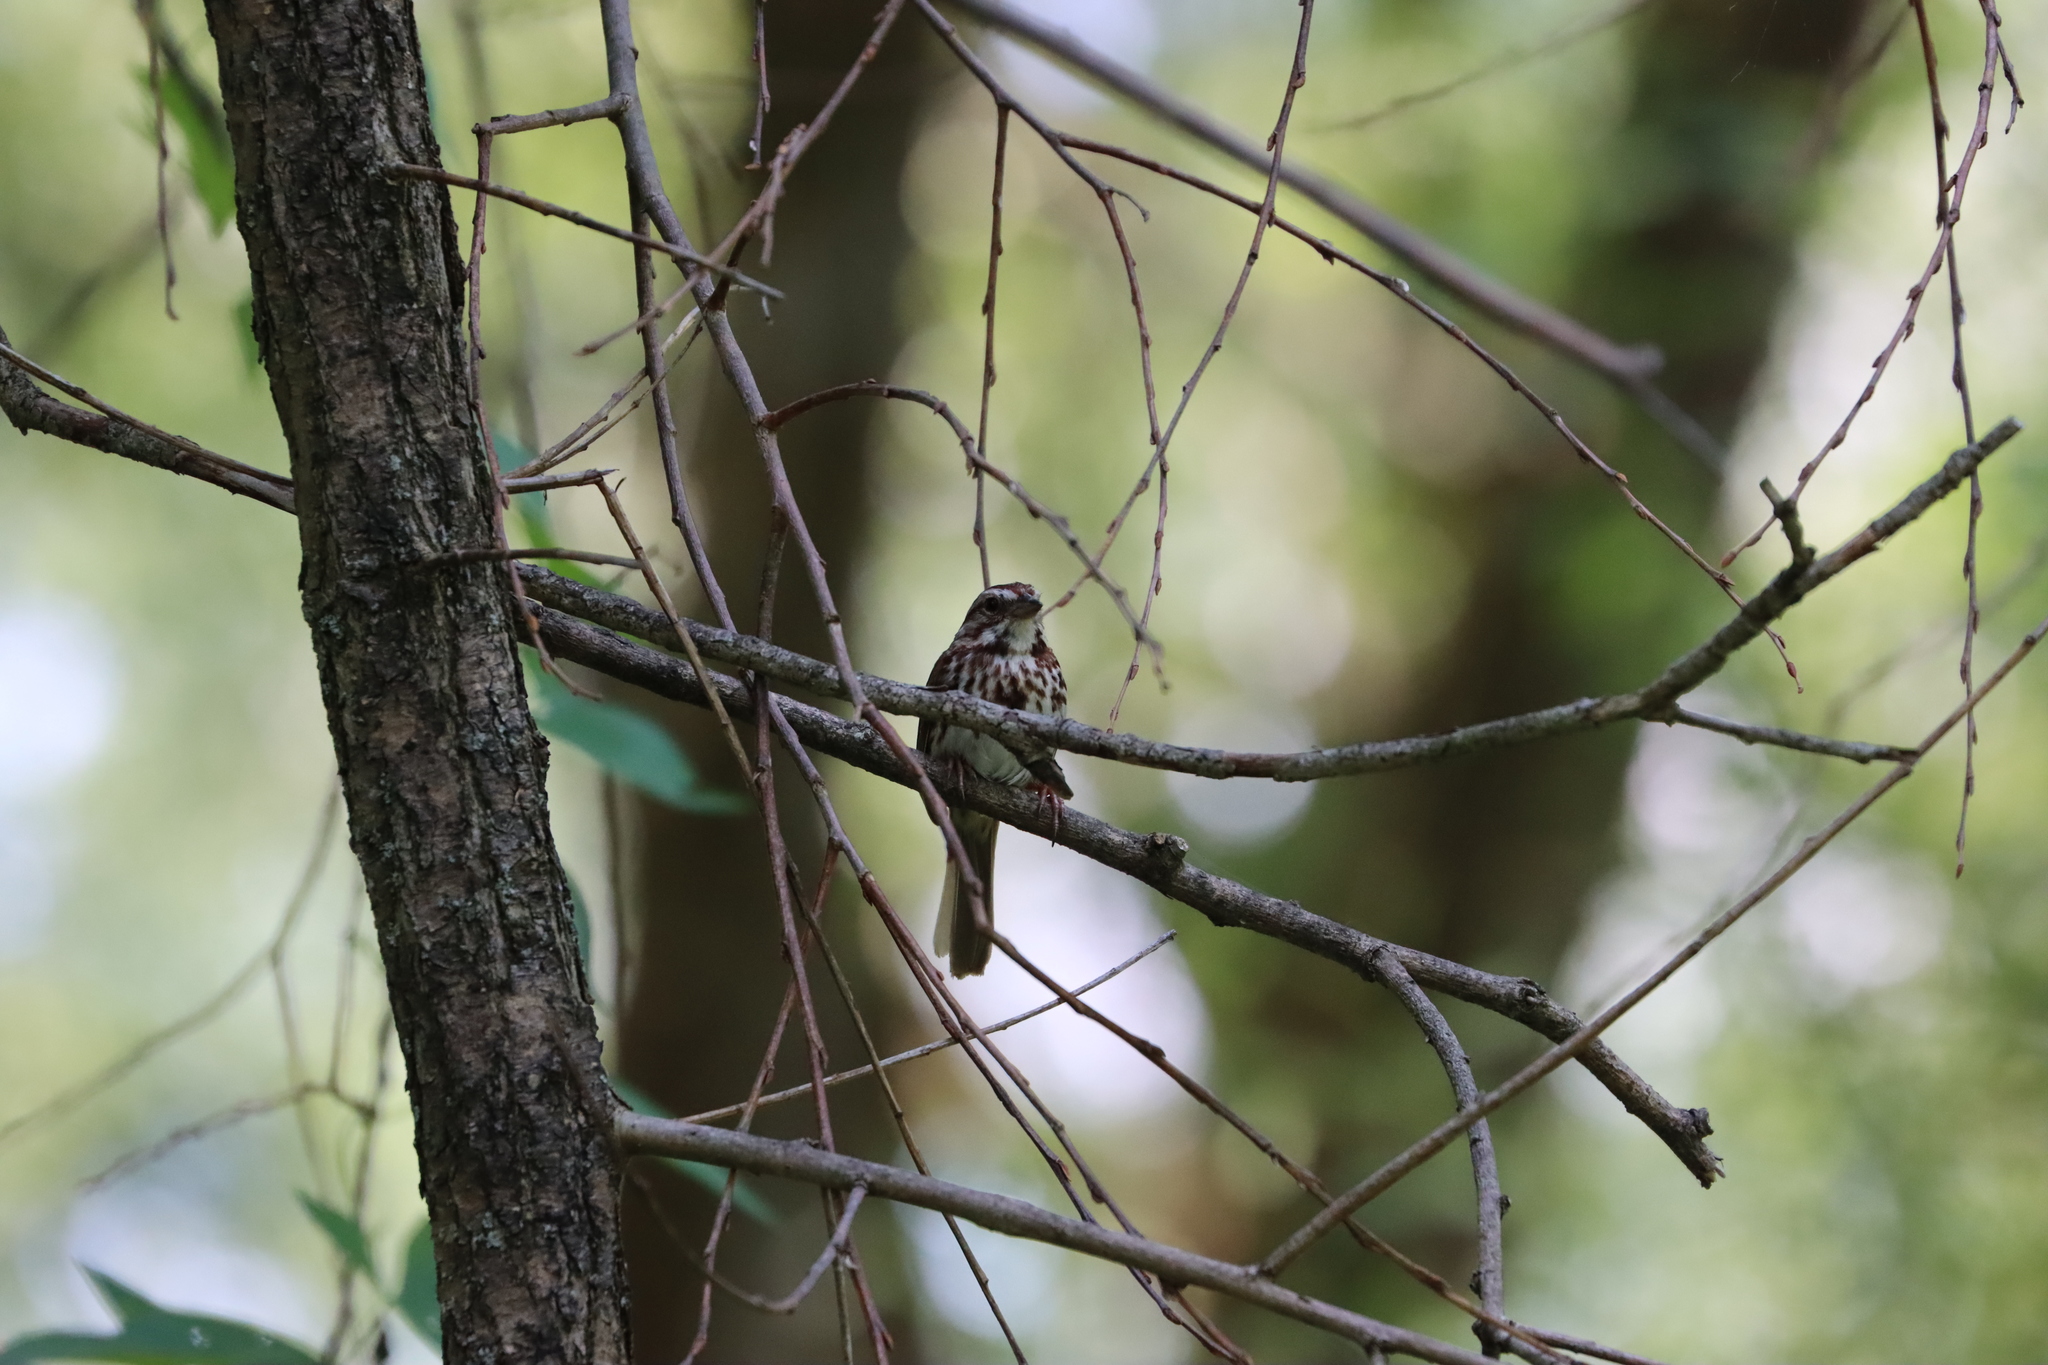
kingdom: Animalia
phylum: Chordata
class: Aves
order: Passeriformes
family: Passerellidae
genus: Melospiza
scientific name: Melospiza melodia
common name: Song sparrow
